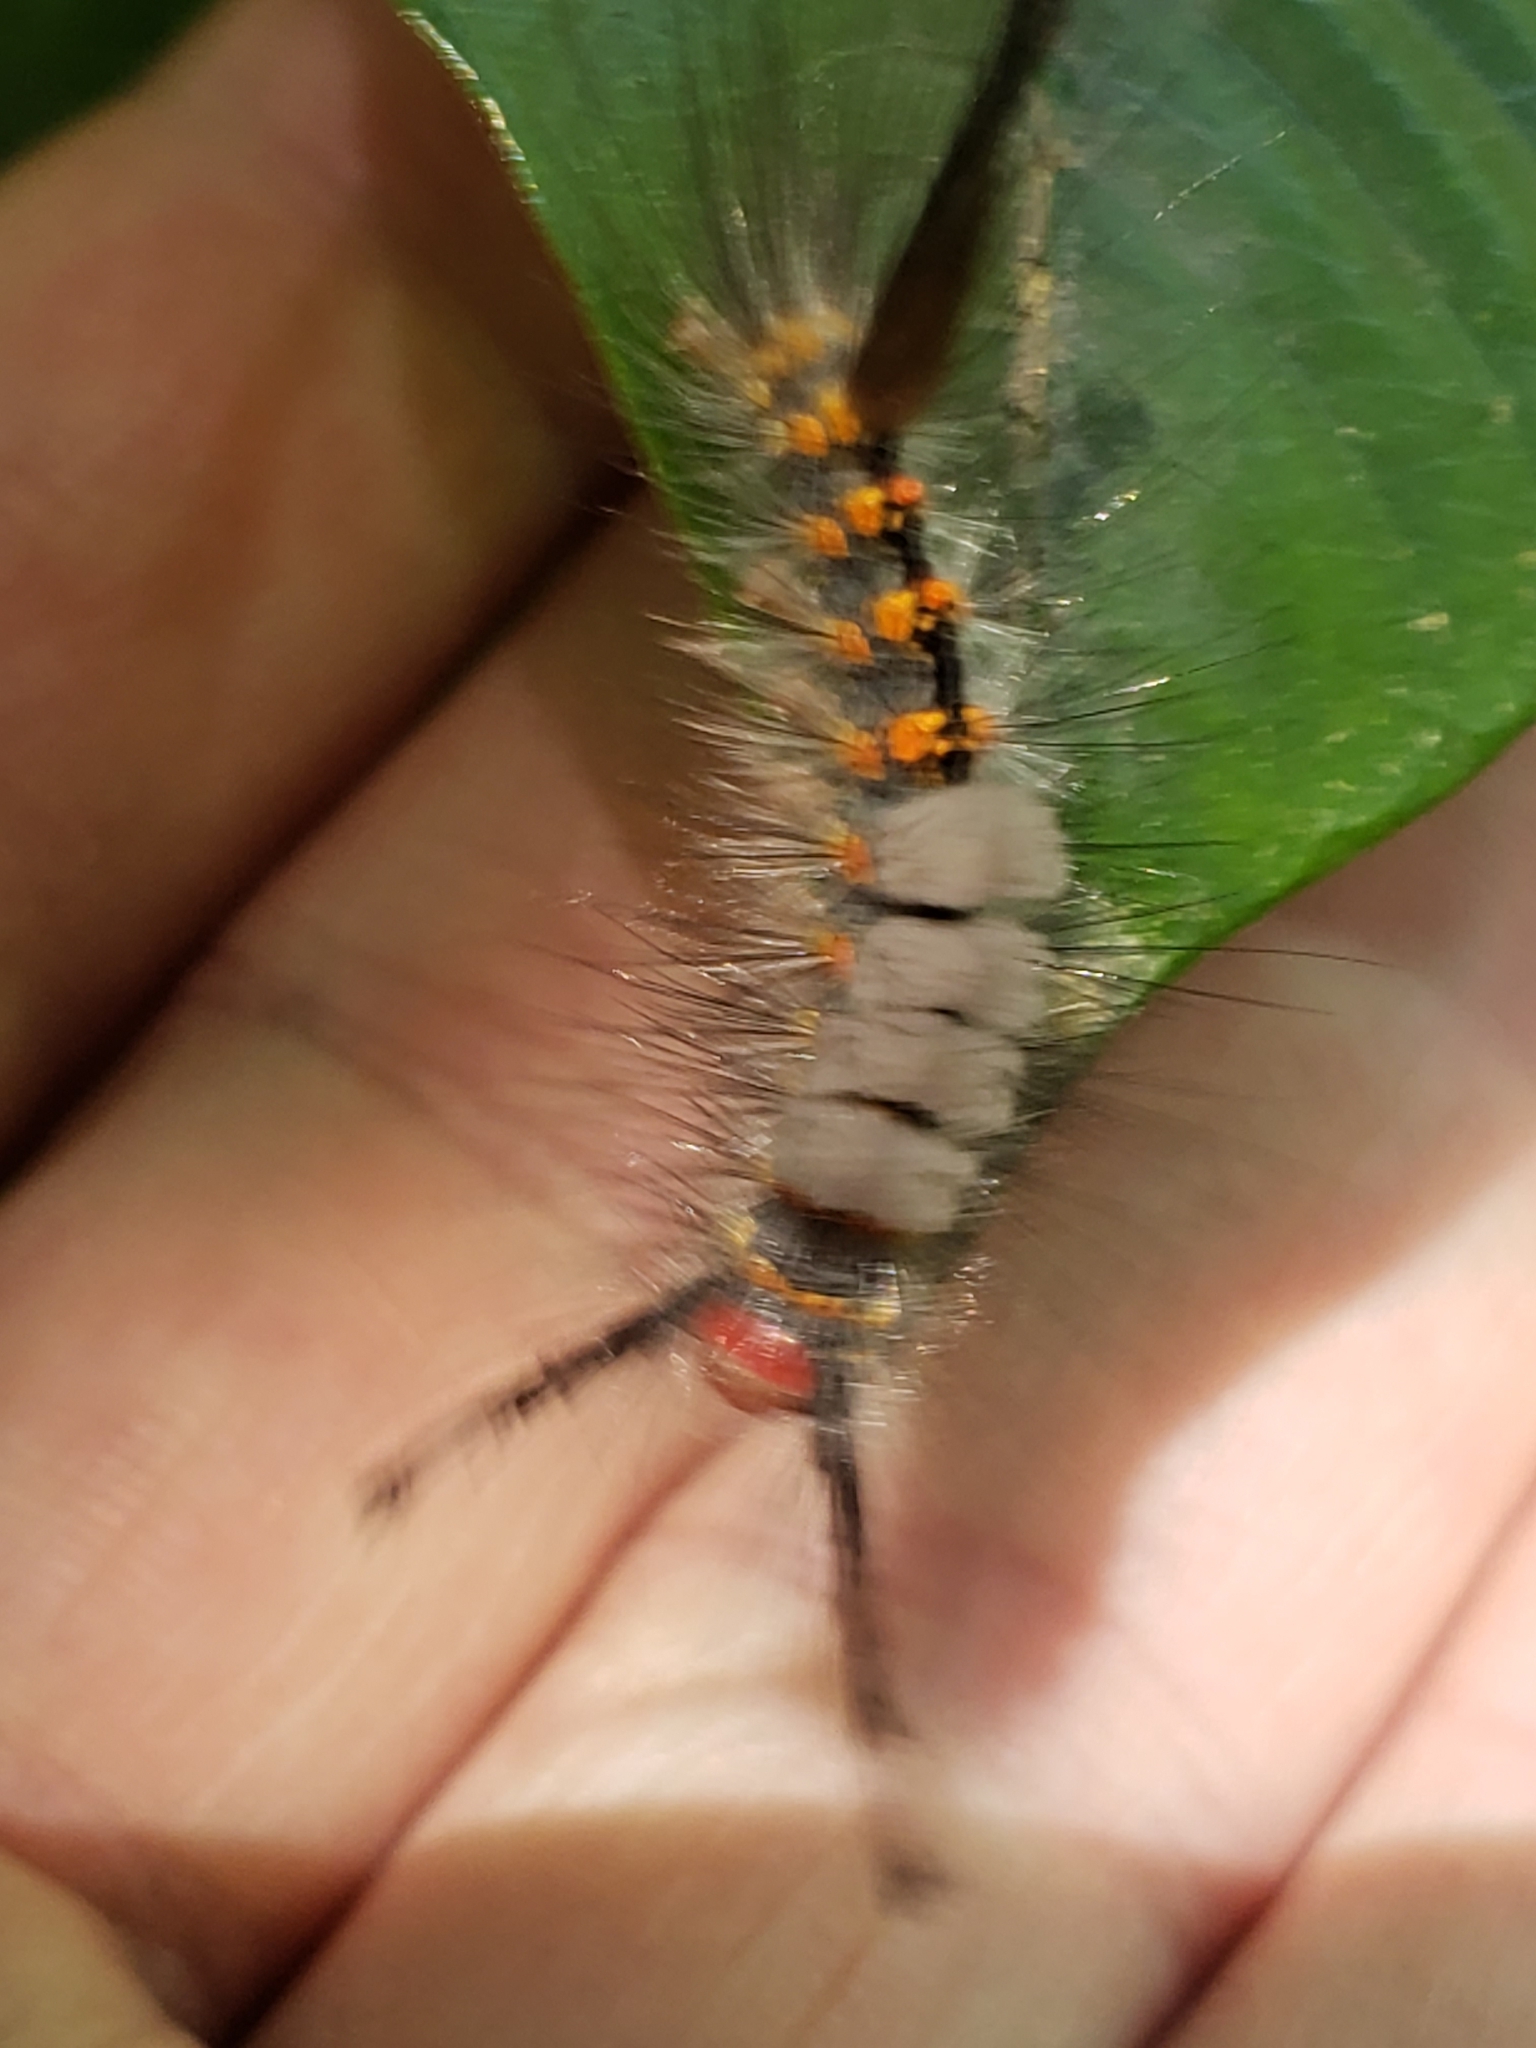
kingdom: Animalia
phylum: Arthropoda
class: Insecta
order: Lepidoptera
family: Erebidae
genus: Orgyia
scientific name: Orgyia detrita
